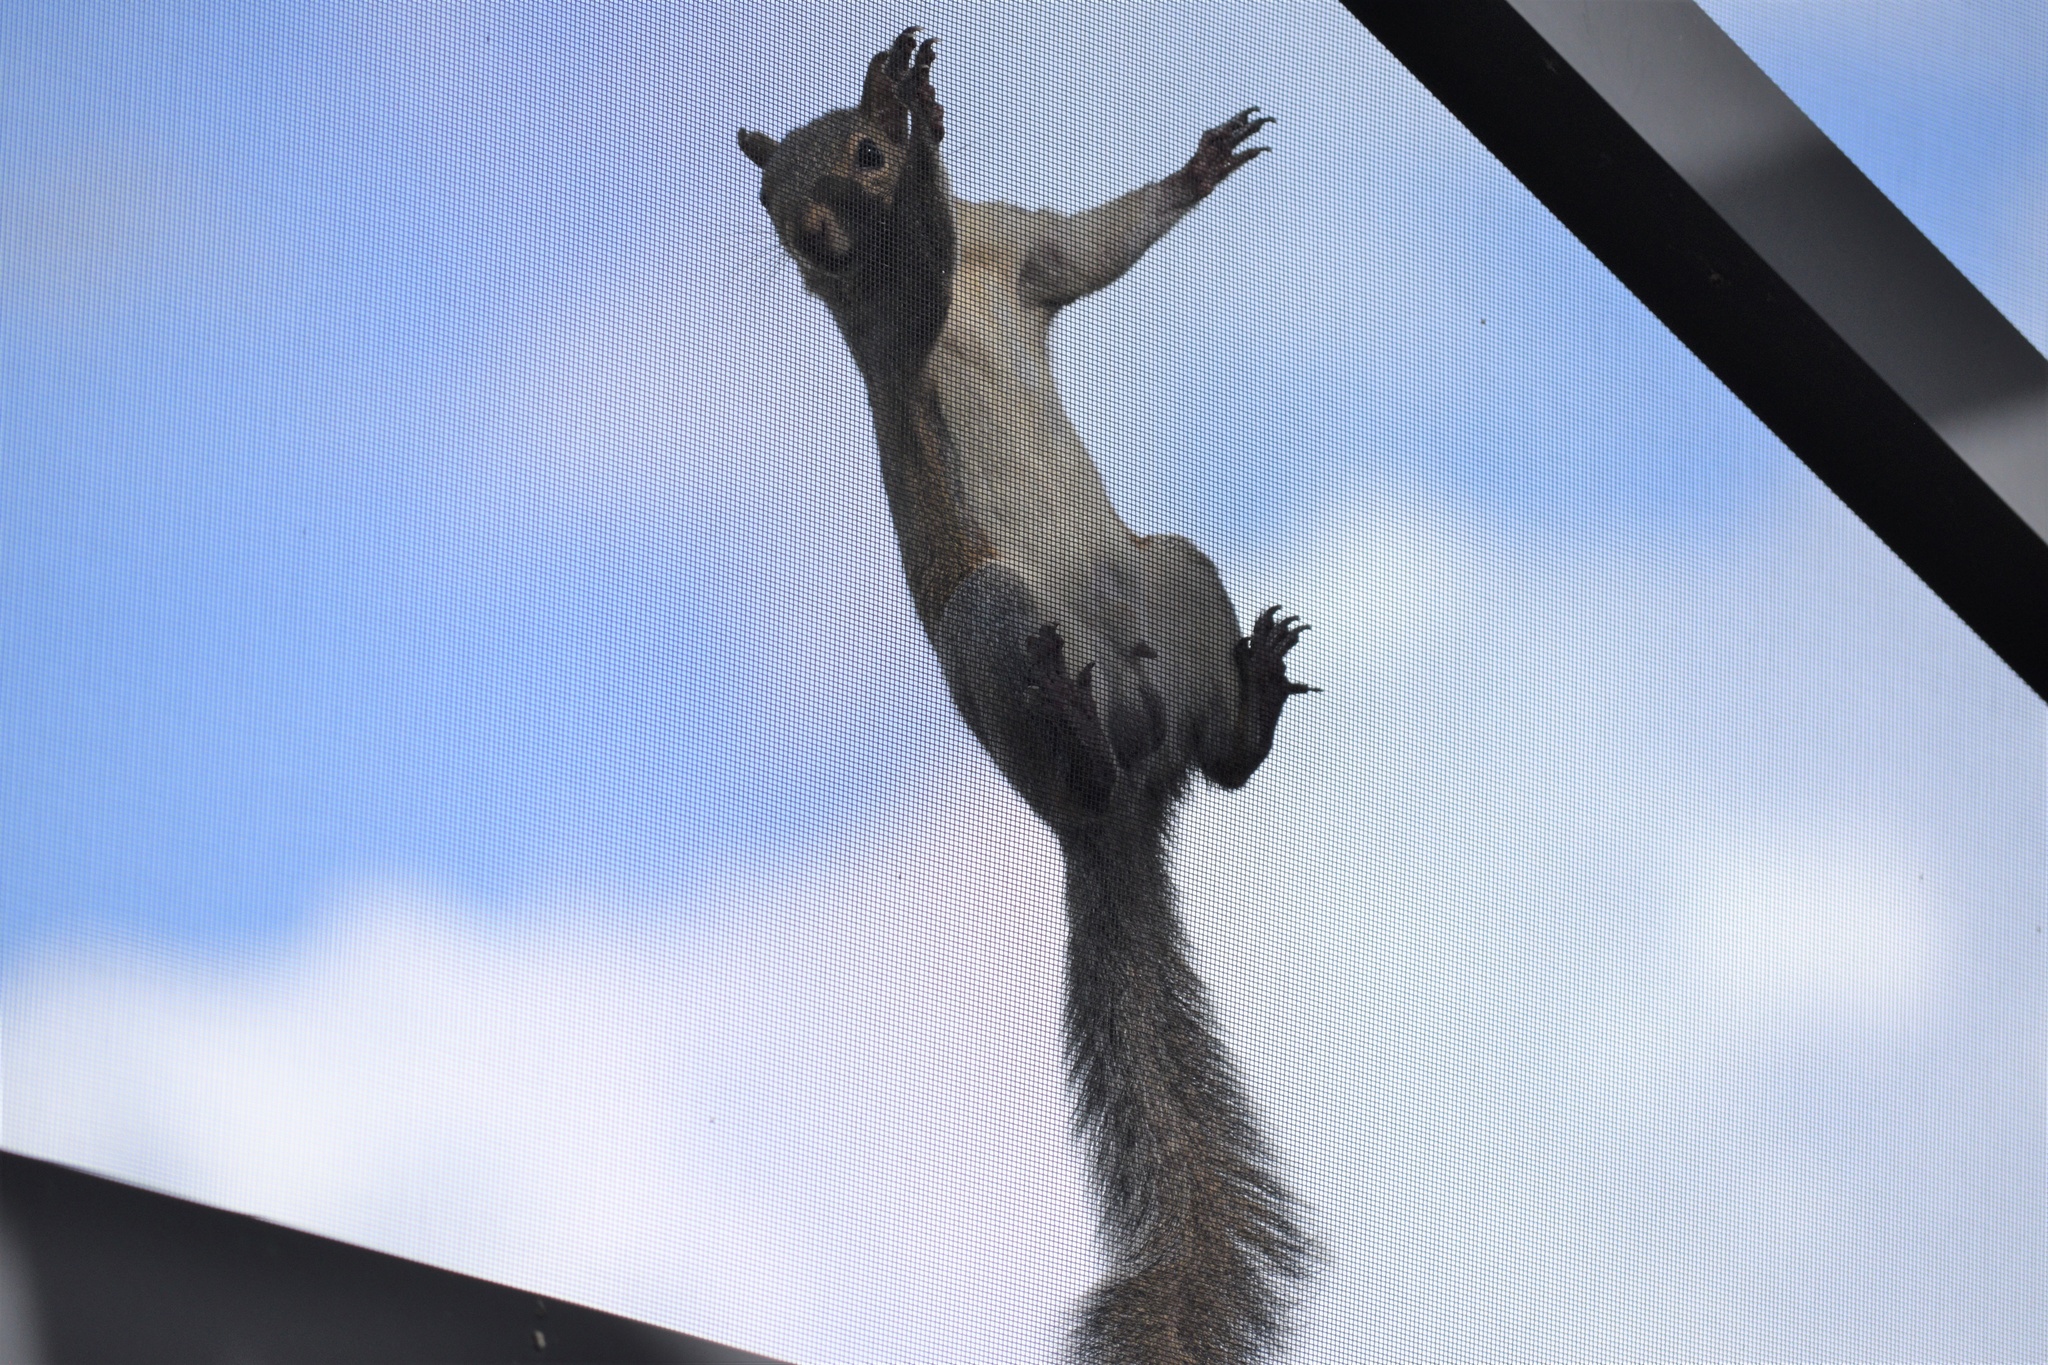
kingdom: Animalia
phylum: Chordata
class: Mammalia
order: Rodentia
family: Sciuridae
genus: Sciurus
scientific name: Sciurus carolinensis
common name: Eastern gray squirrel
